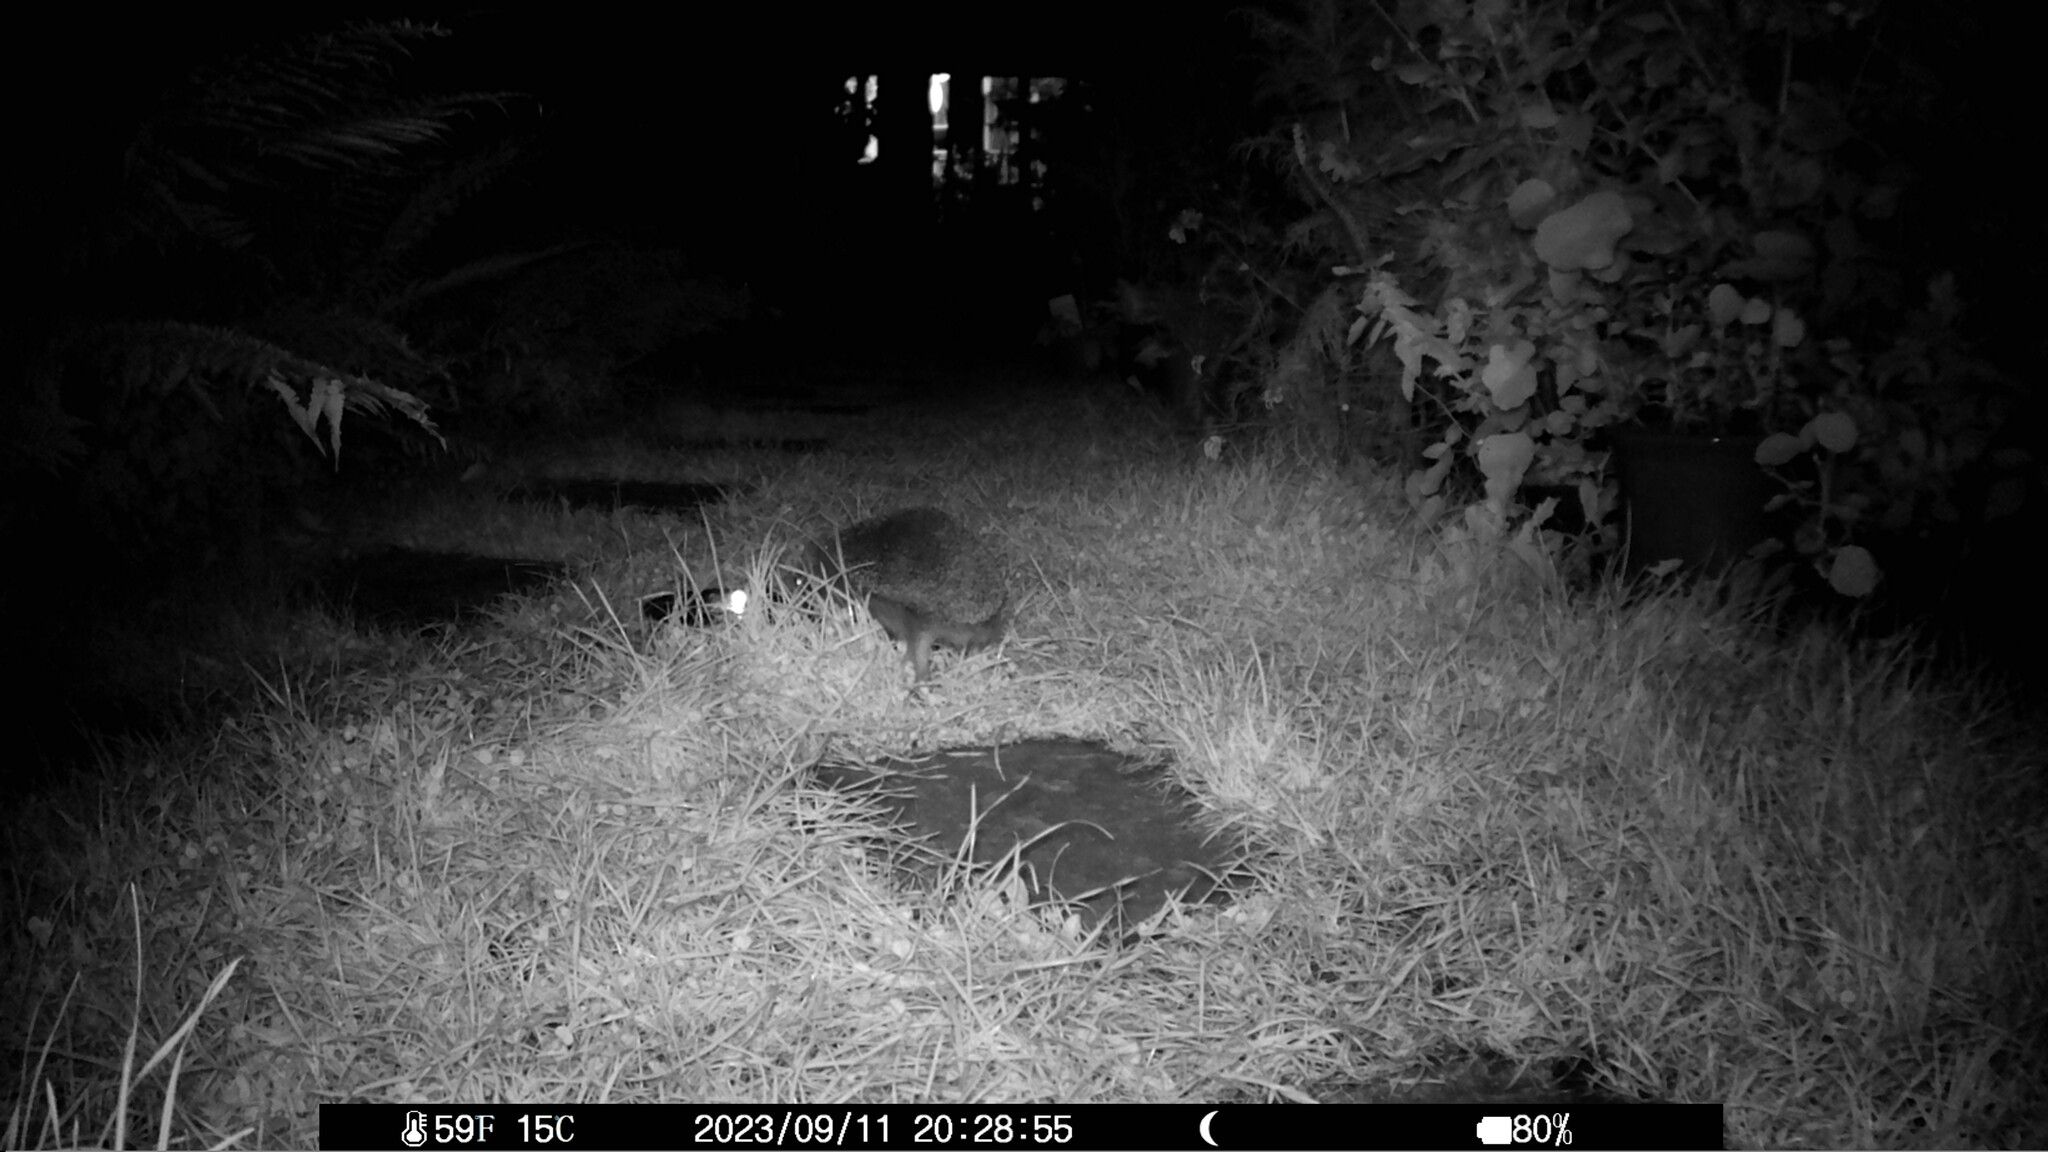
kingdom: Animalia
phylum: Chordata
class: Mammalia
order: Erinaceomorpha
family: Erinaceidae
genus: Erinaceus
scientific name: Erinaceus europaeus
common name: West european hedgehog
